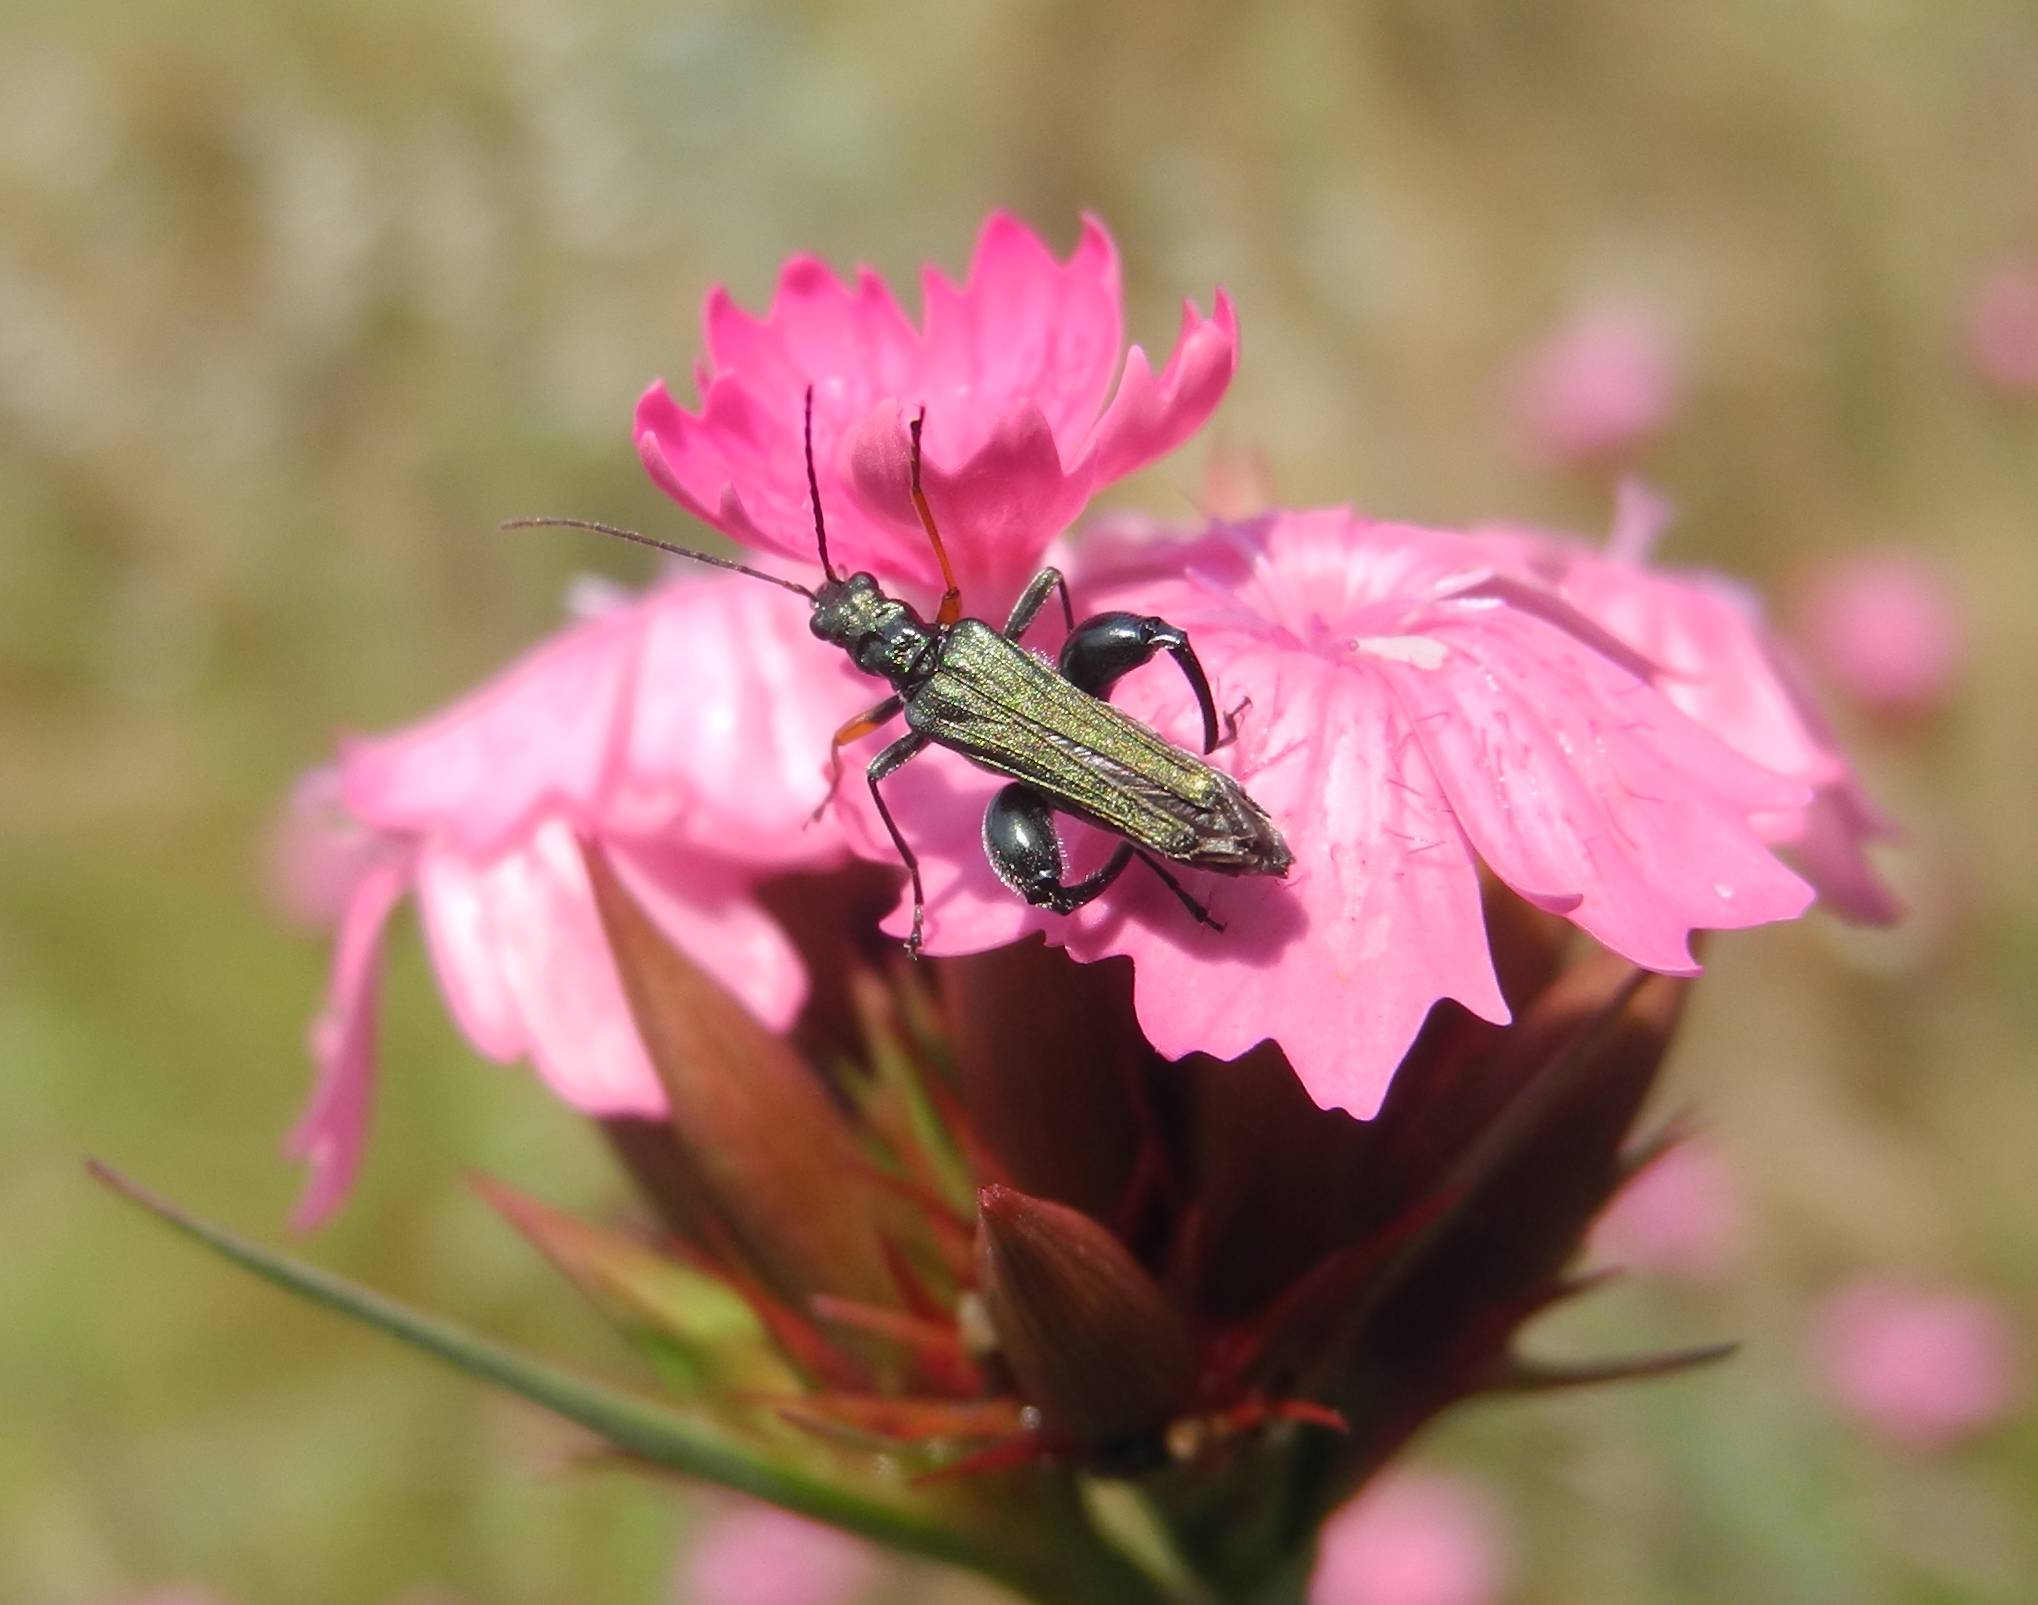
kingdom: Animalia
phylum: Arthropoda
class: Insecta
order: Coleoptera
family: Oedemeridae
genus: Oedemera
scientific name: Oedemera flavipes
